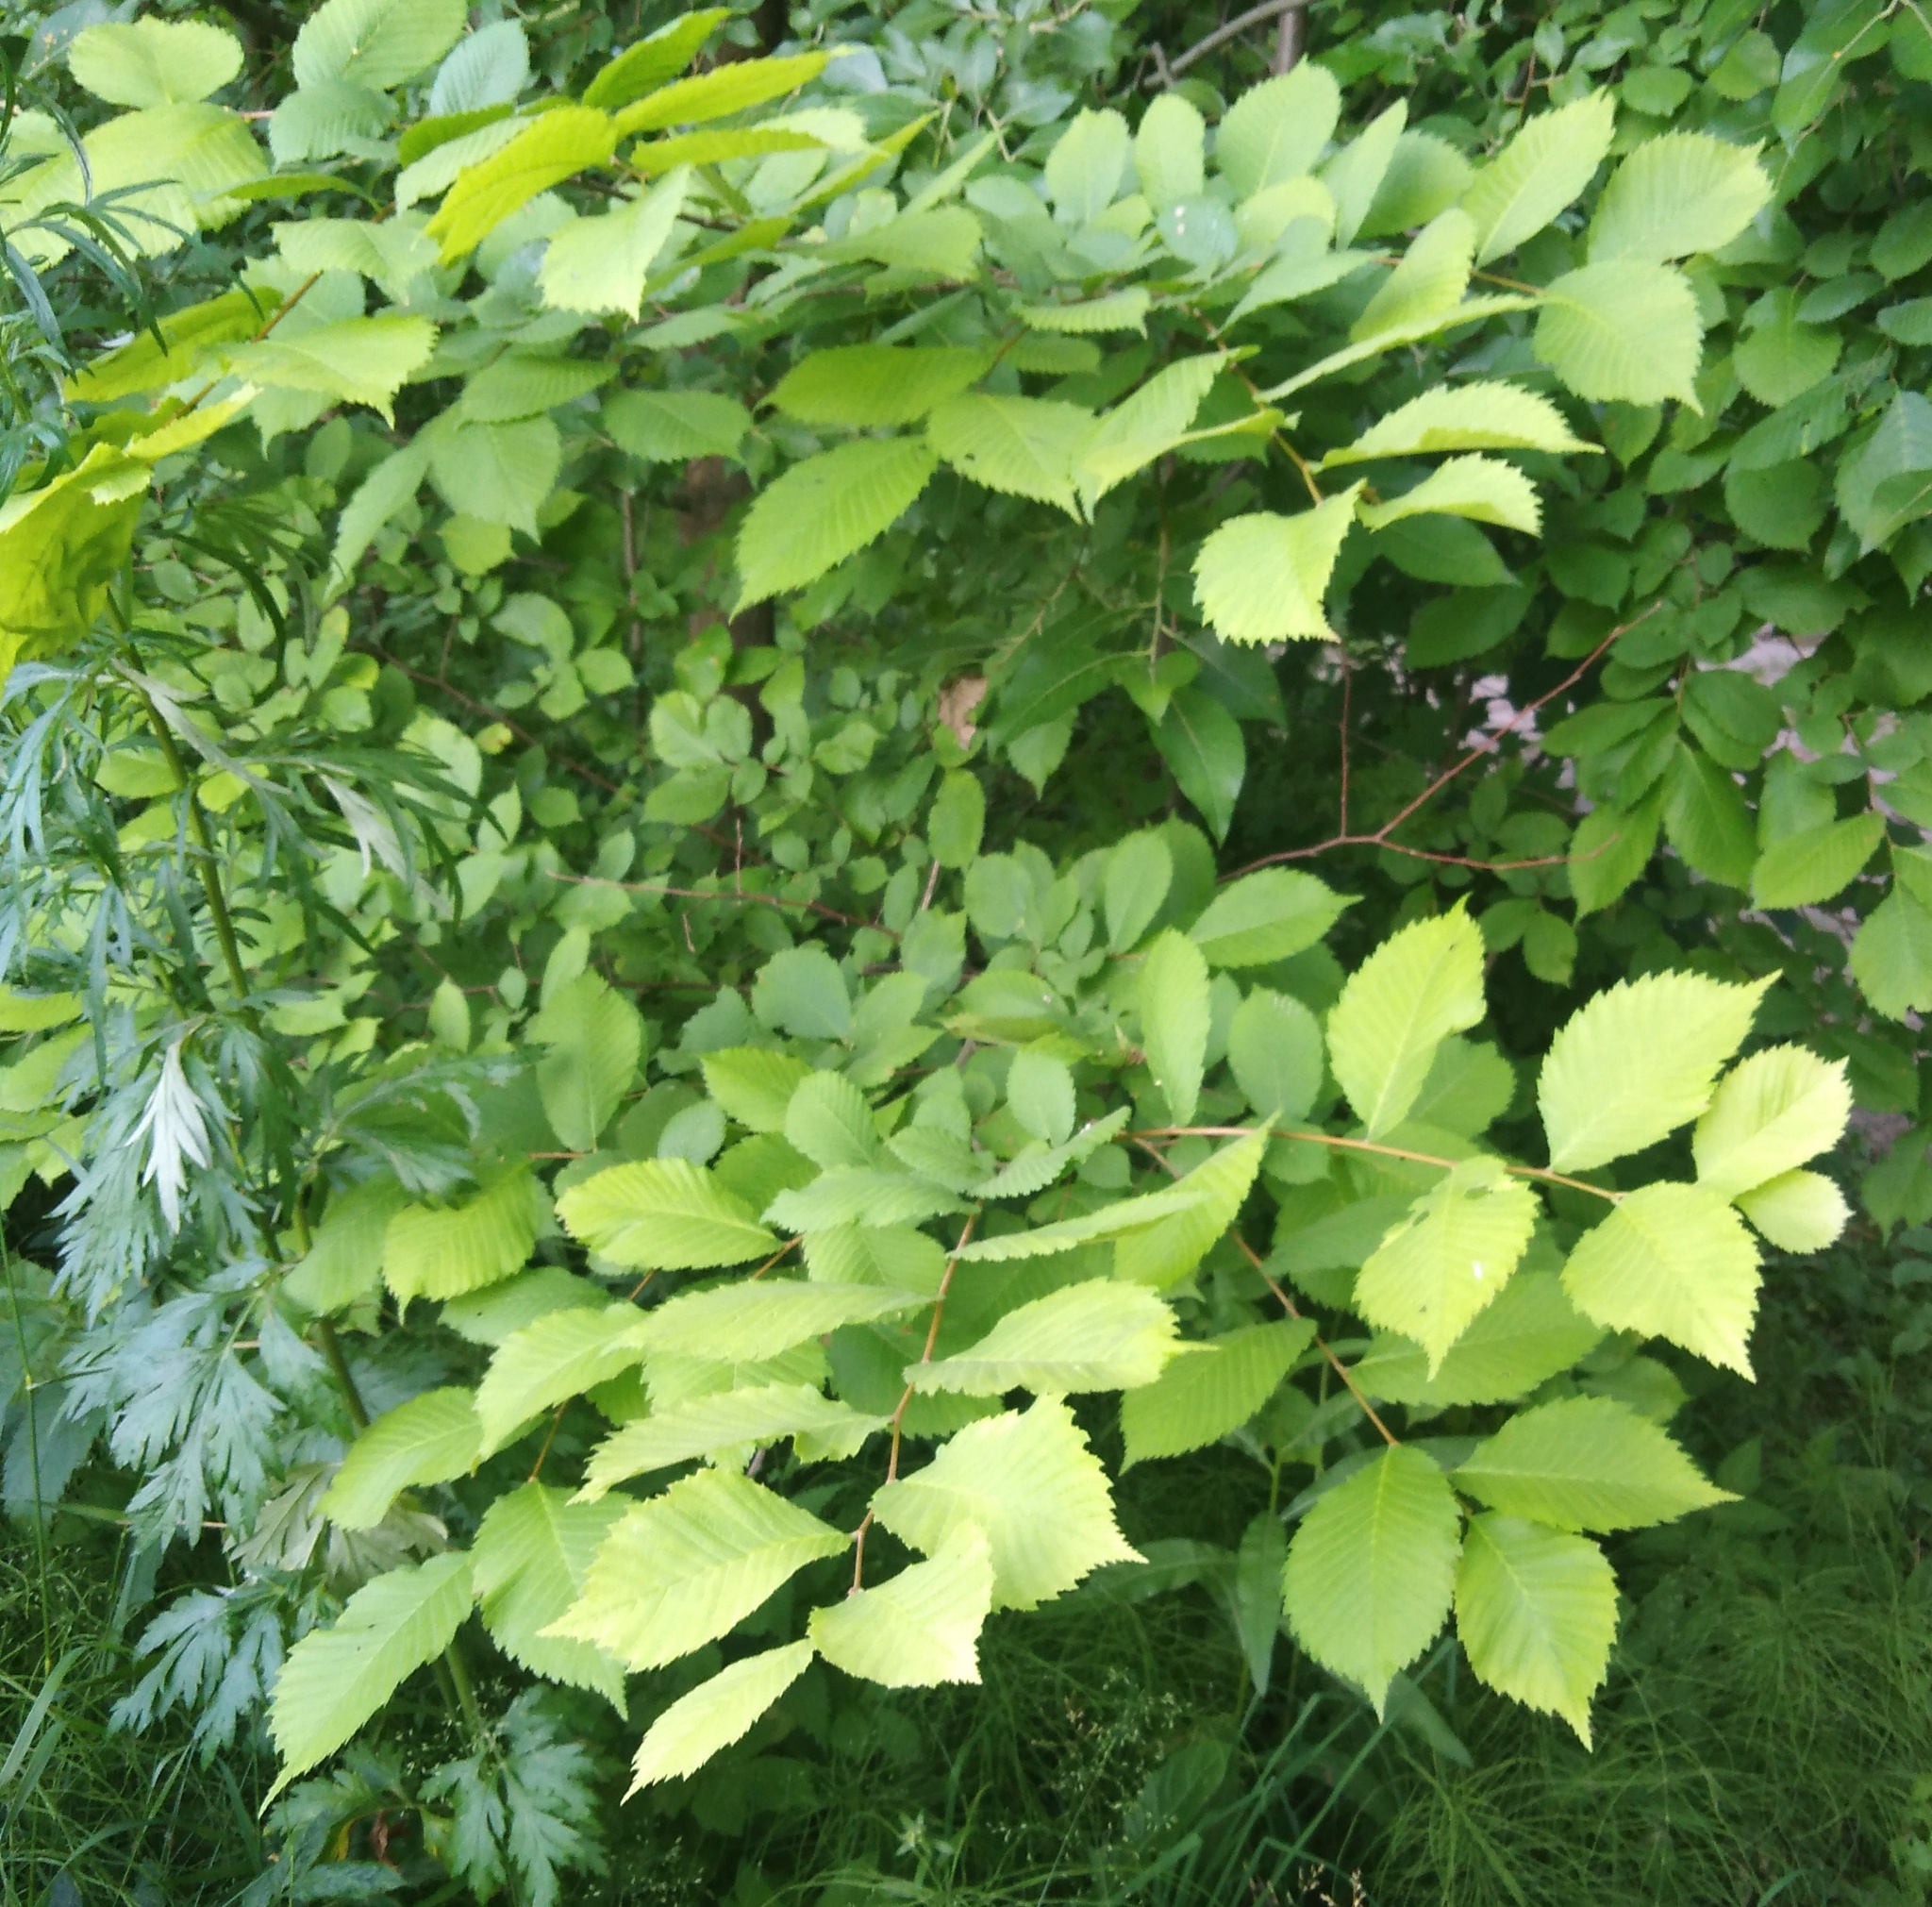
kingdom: Plantae
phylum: Tracheophyta
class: Magnoliopsida
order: Rosales
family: Ulmaceae
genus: Ulmus
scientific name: Ulmus laevis
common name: European white-elm
